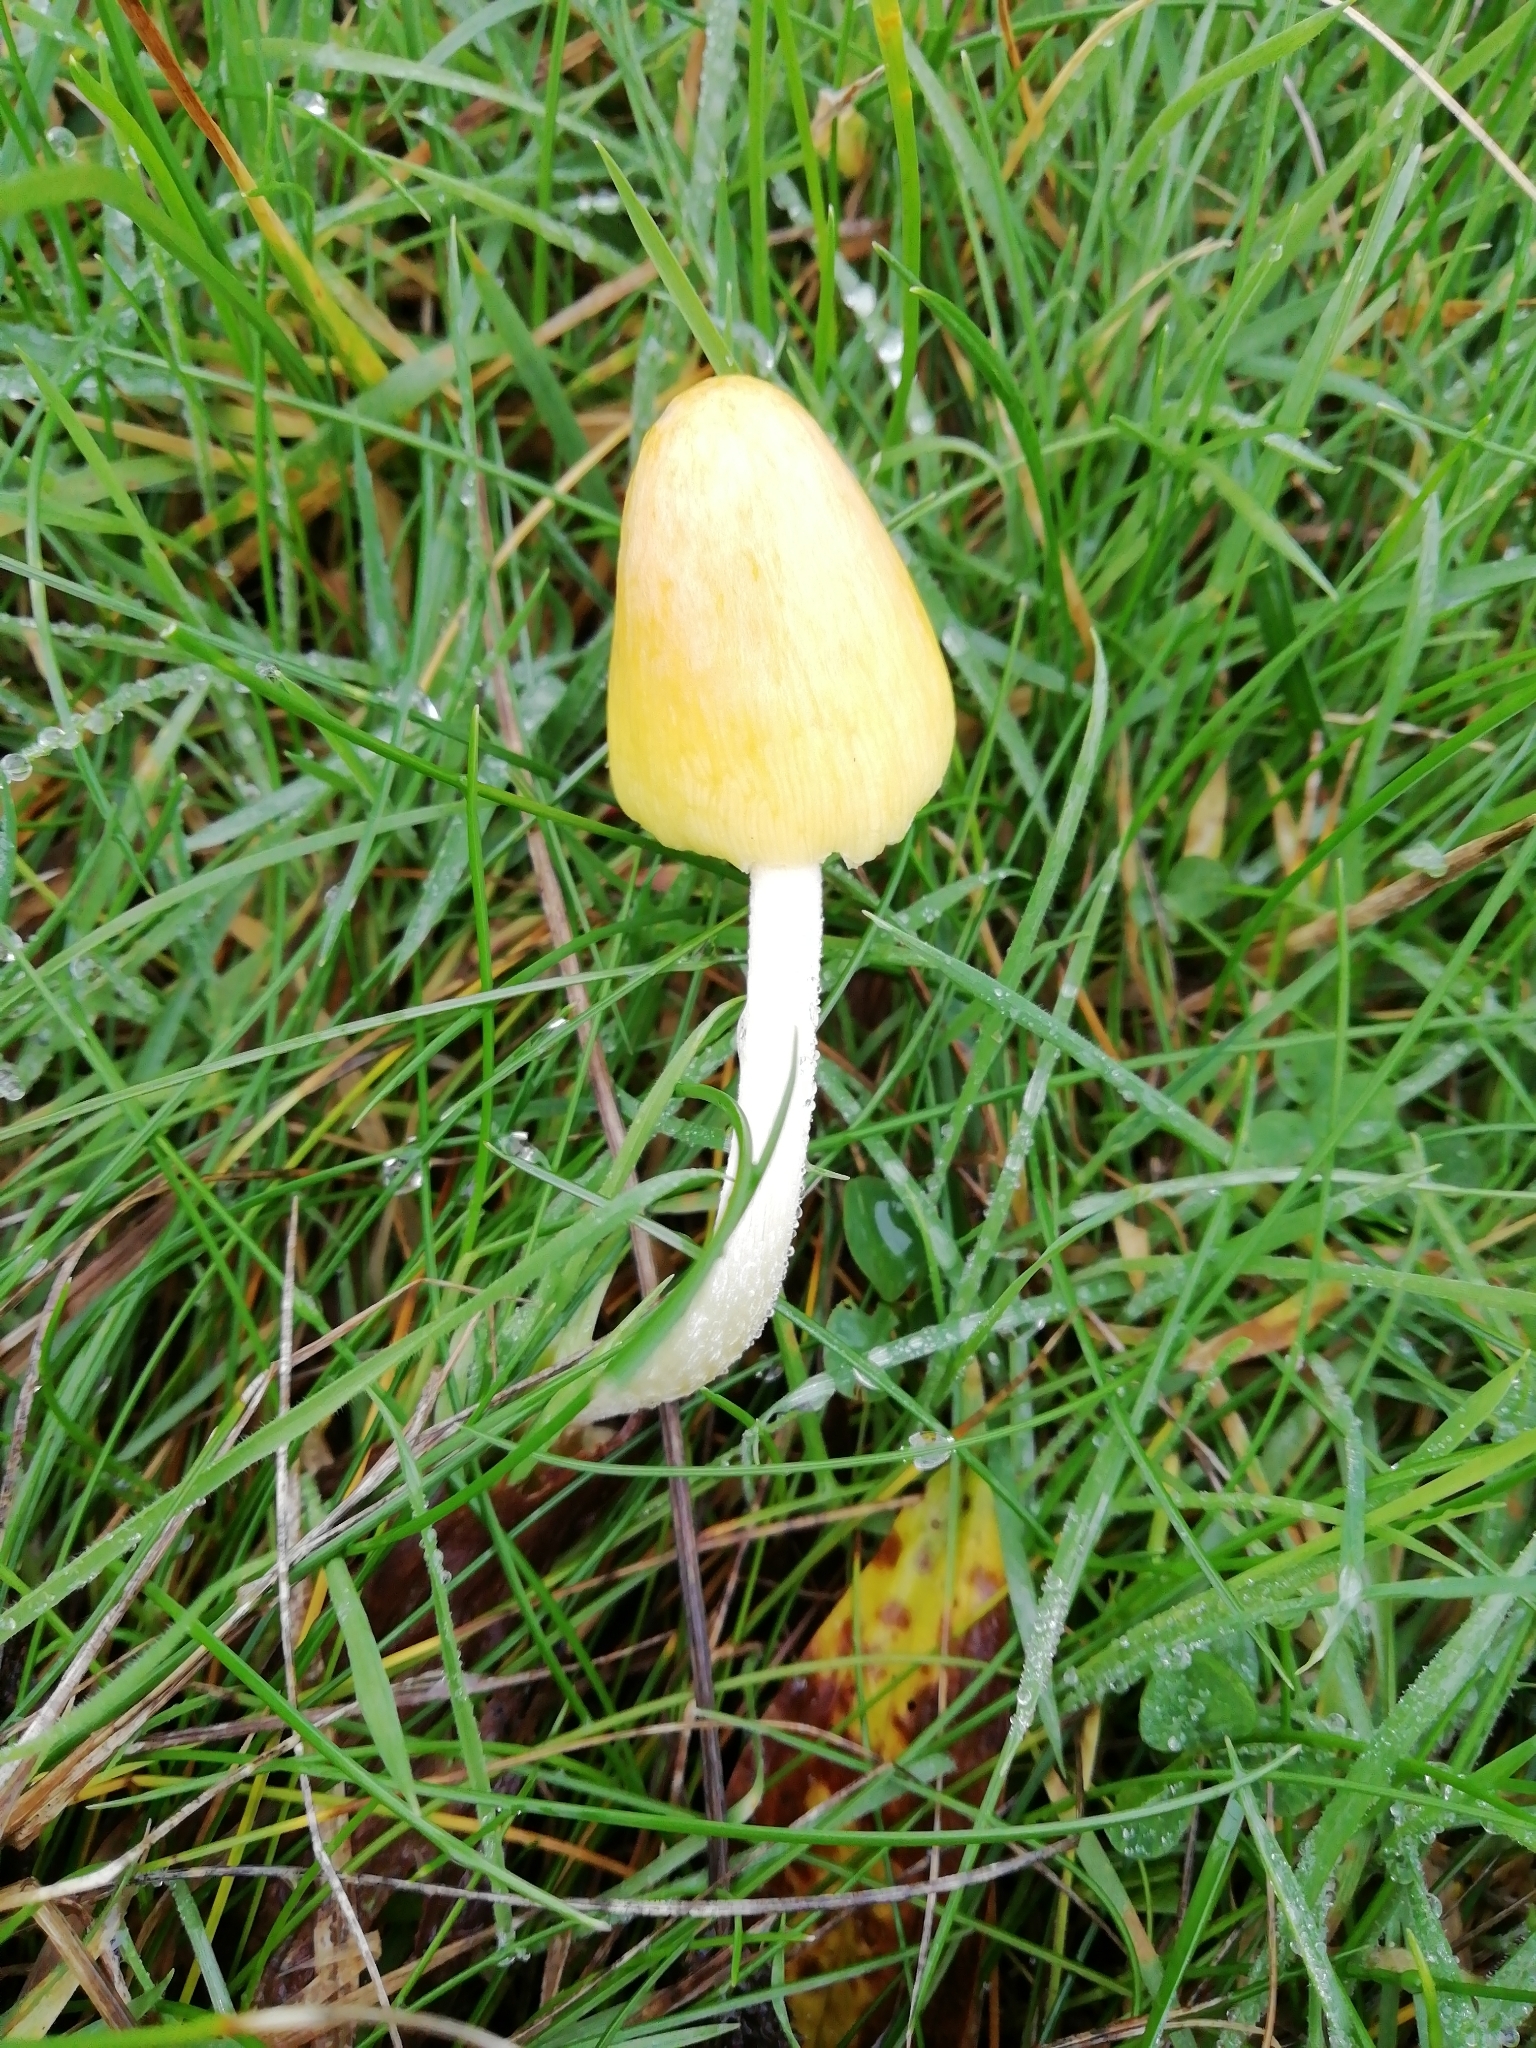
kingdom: Fungi
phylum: Basidiomycota
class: Agaricomycetes
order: Agaricales
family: Bolbitiaceae
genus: Bolbitius
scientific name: Bolbitius titubans
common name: Yellow fieldcap
